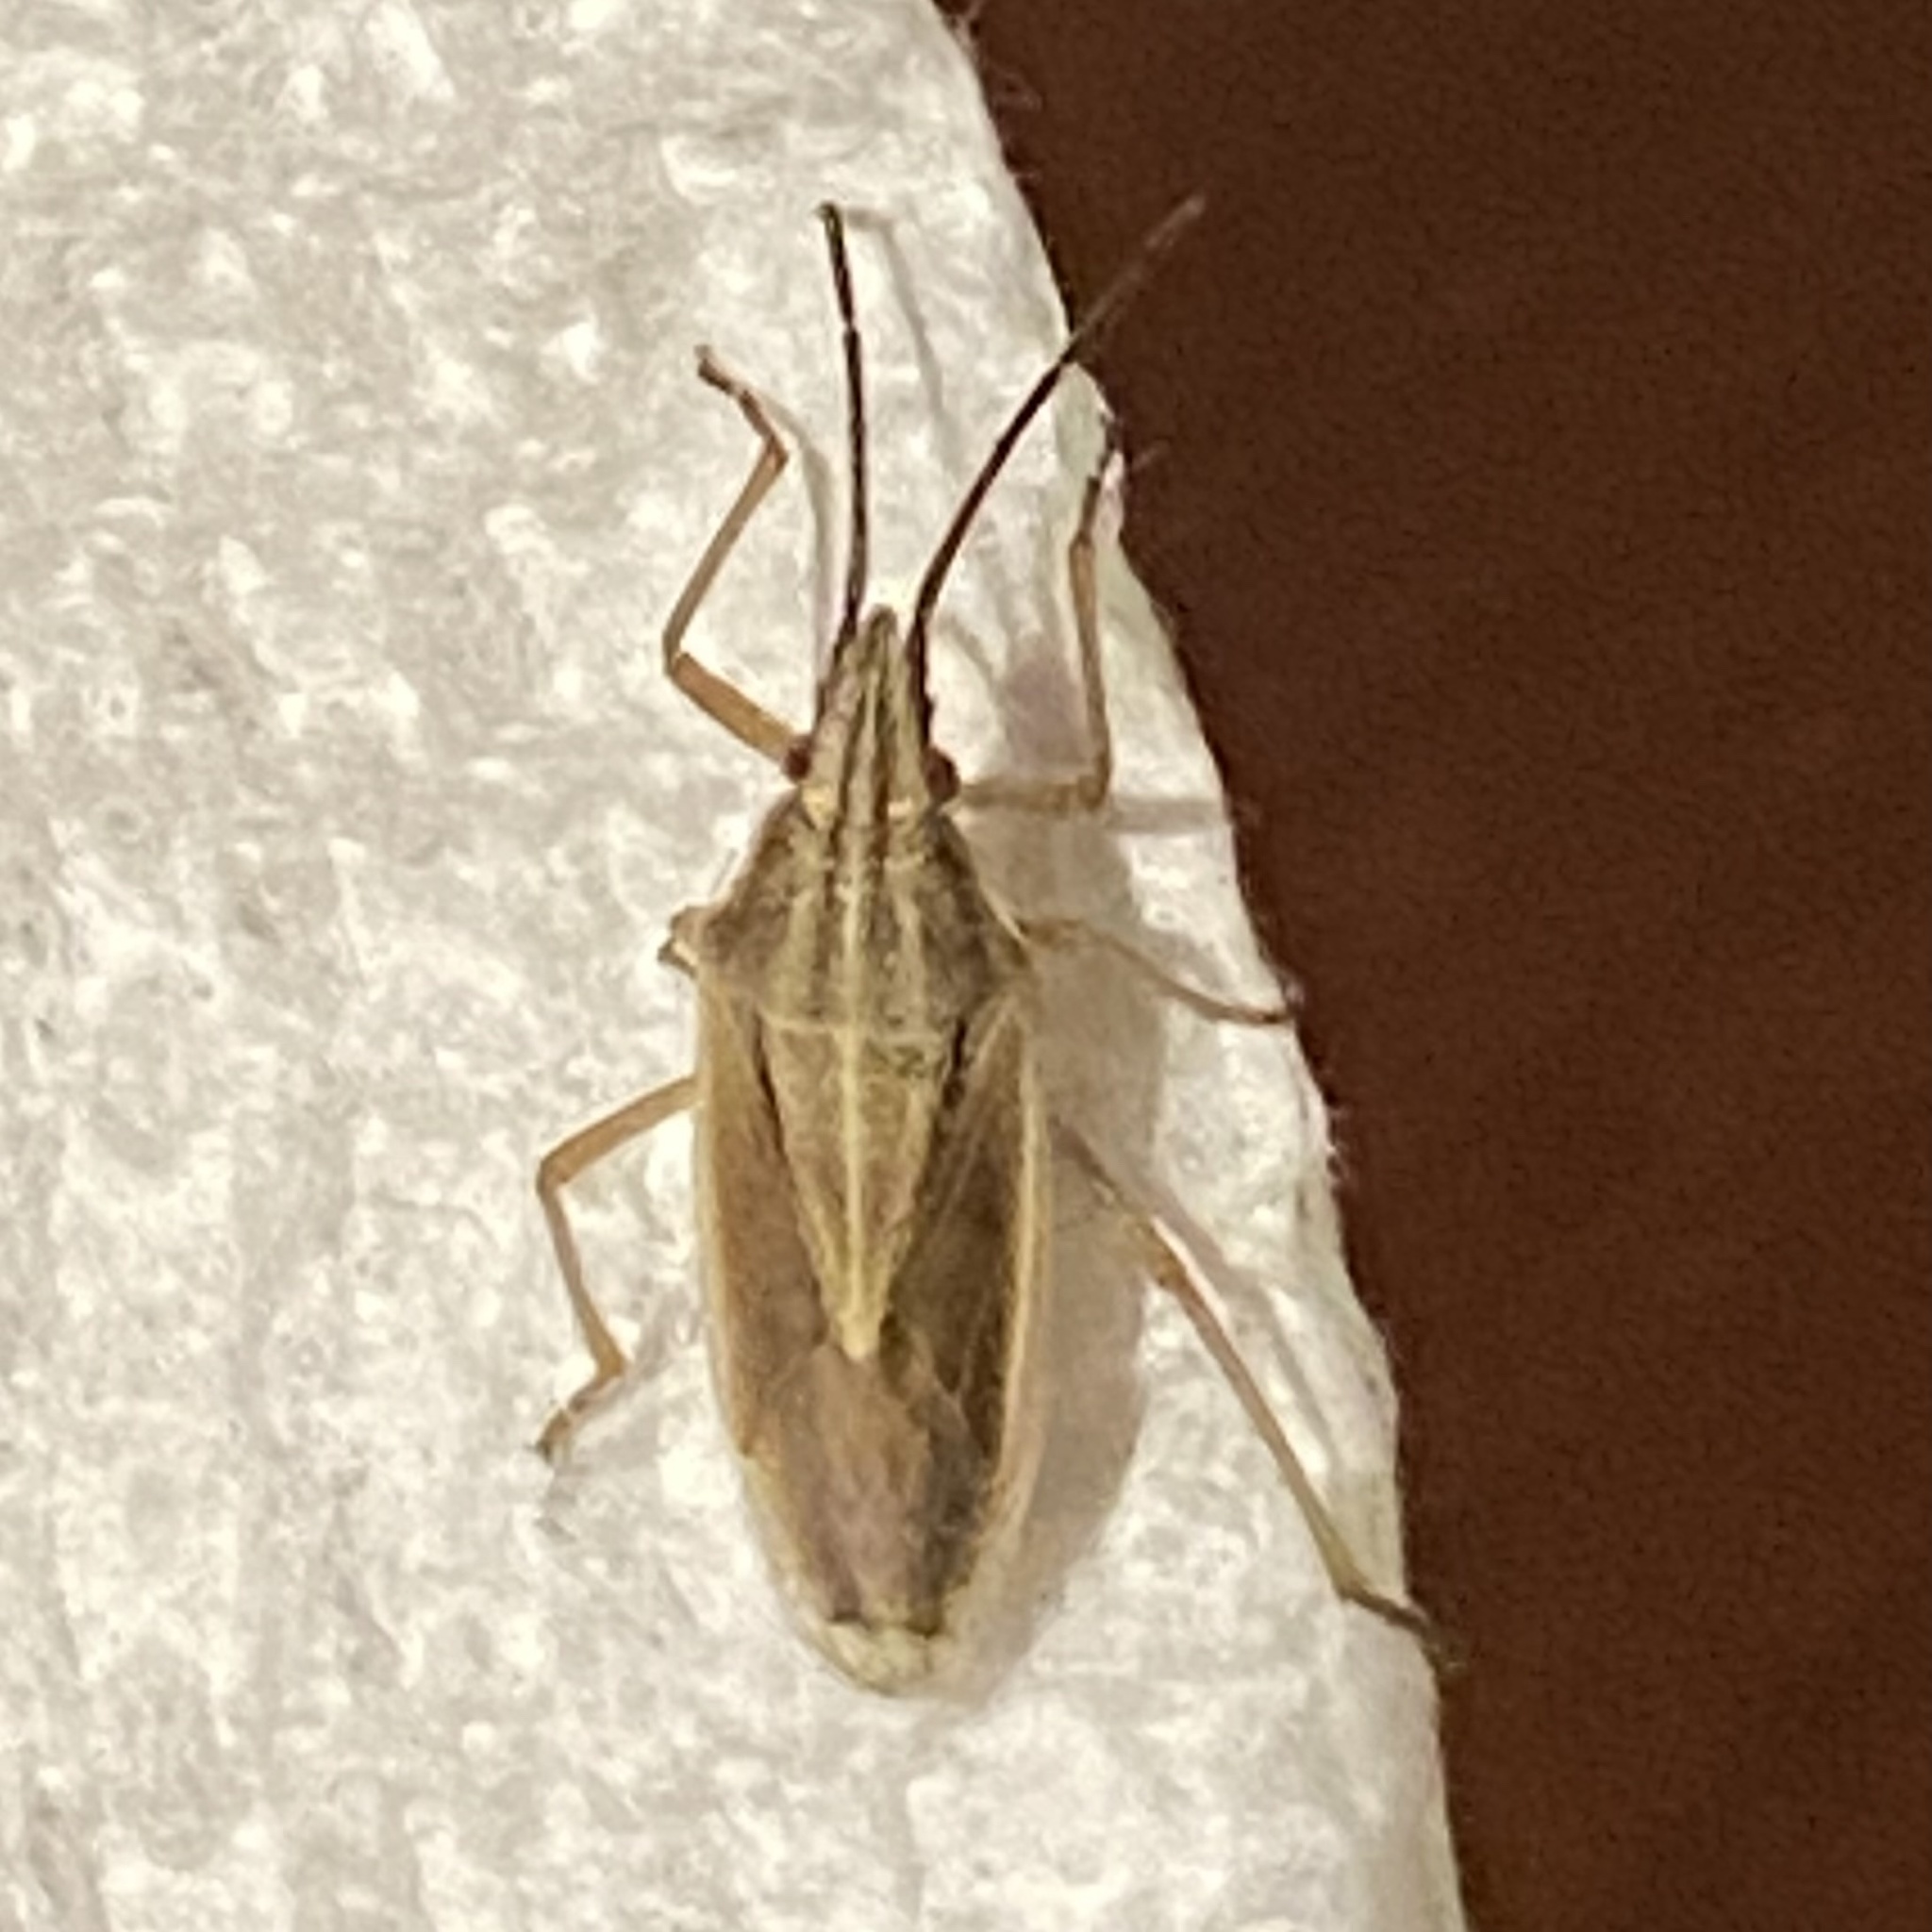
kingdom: Animalia
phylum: Arthropoda
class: Insecta
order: Hemiptera
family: Pentatomidae
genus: Mecidea
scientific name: Mecidea
